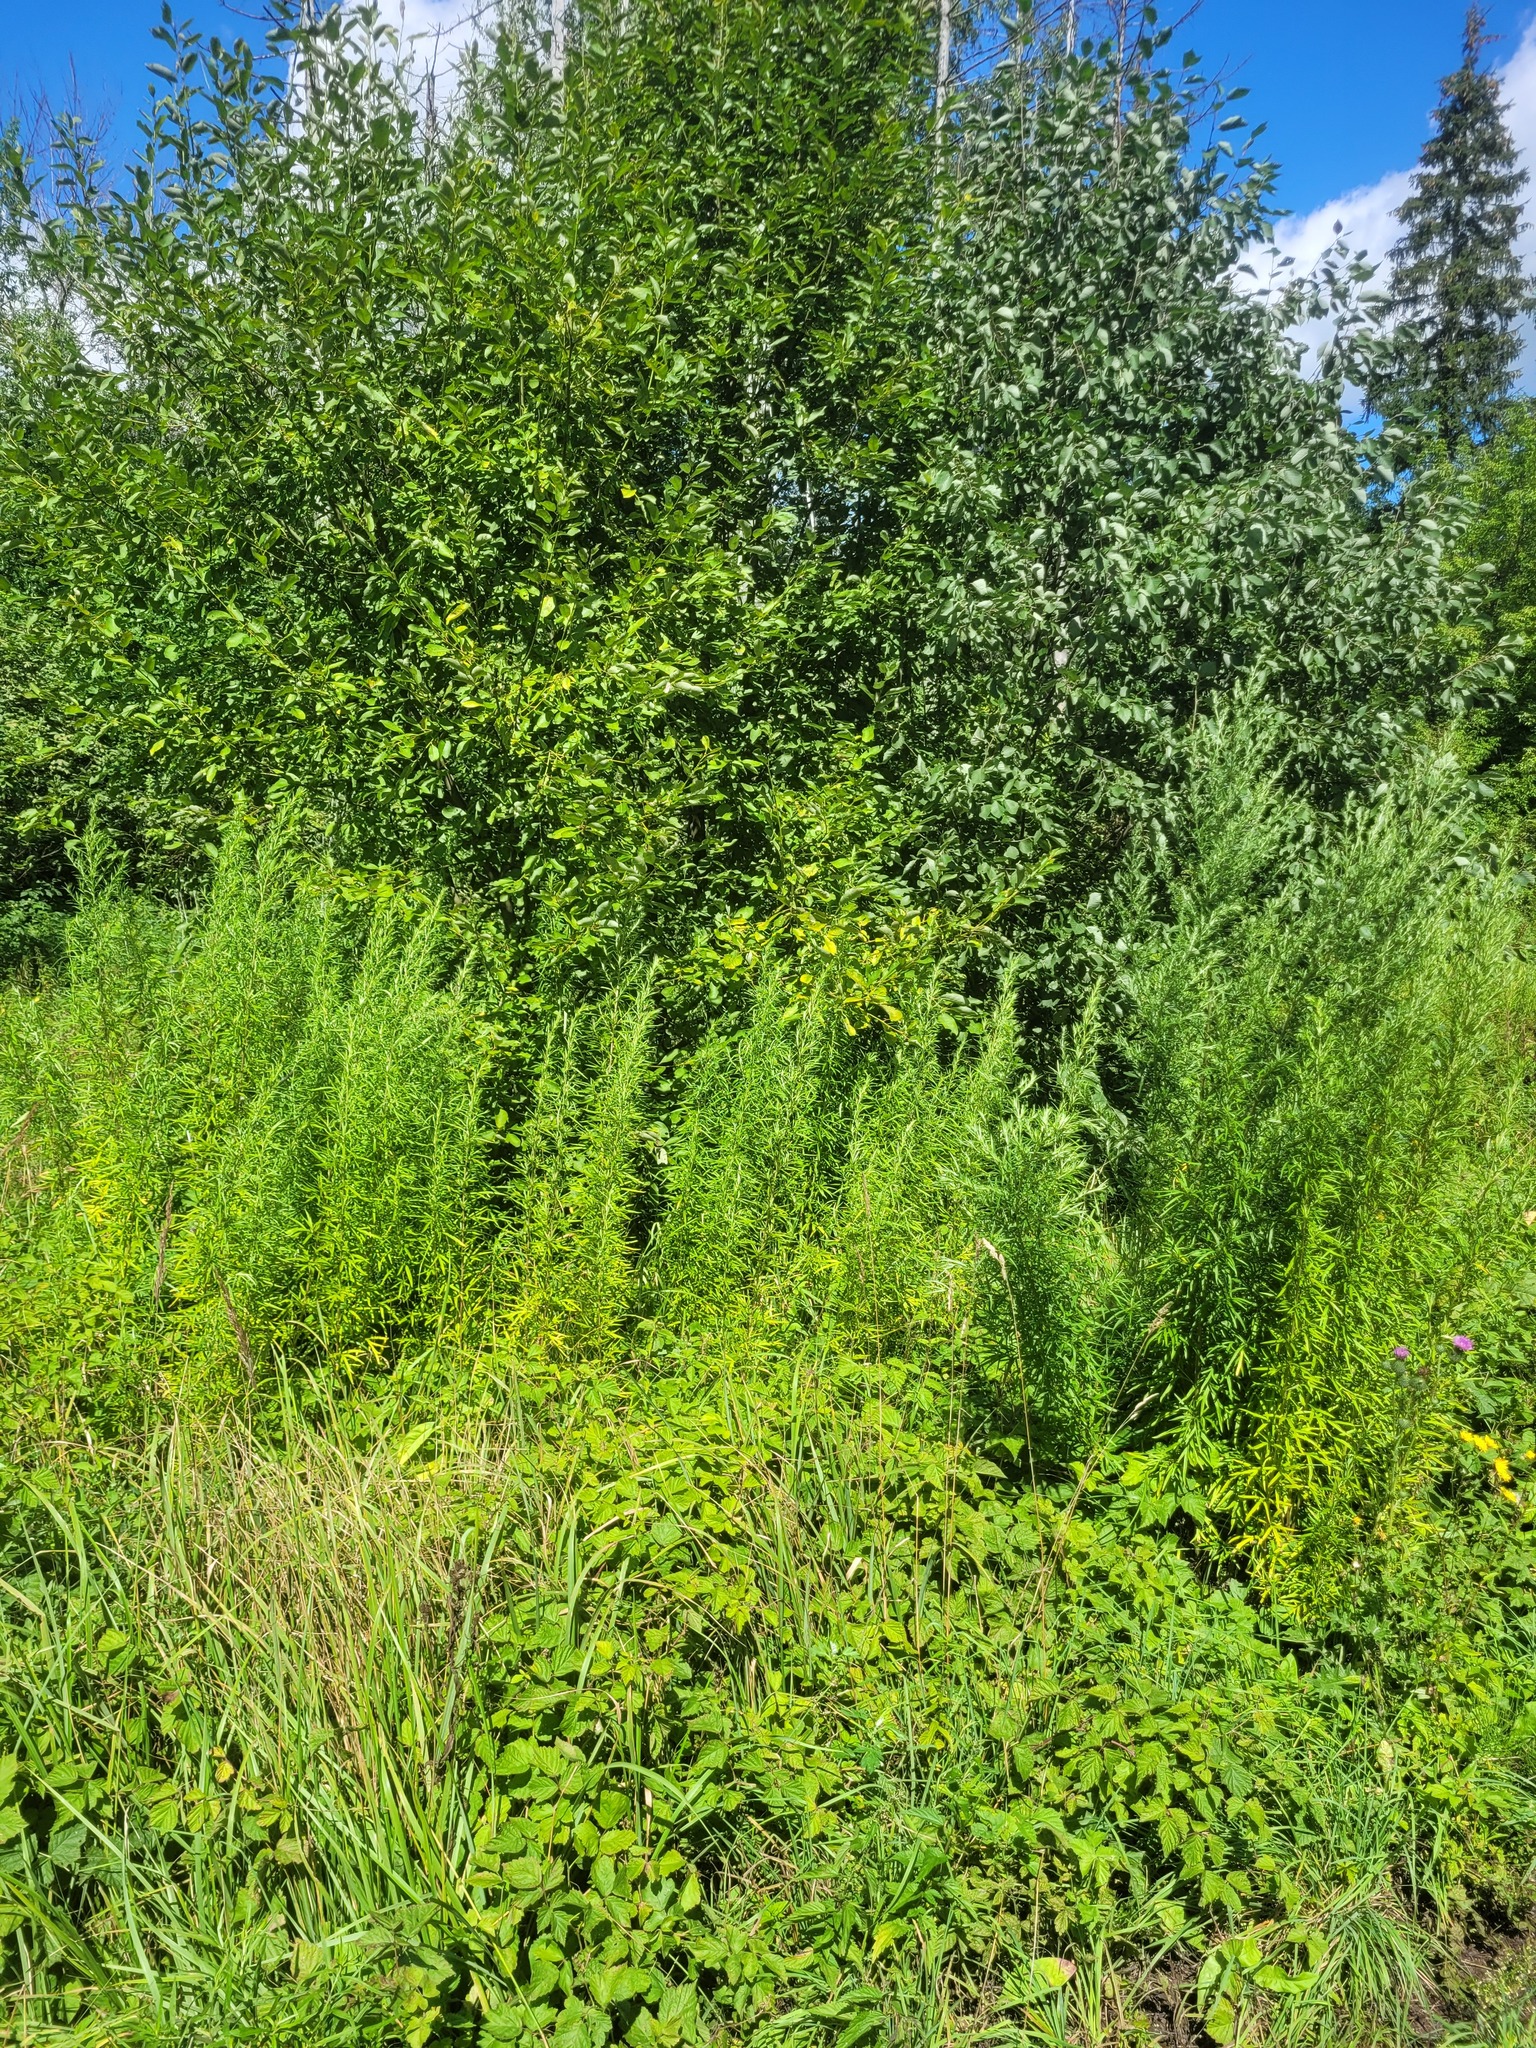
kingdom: Plantae
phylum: Tracheophyta
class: Magnoliopsida
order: Asterales
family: Asteraceae
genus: Artemisia
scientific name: Artemisia umbrosa
